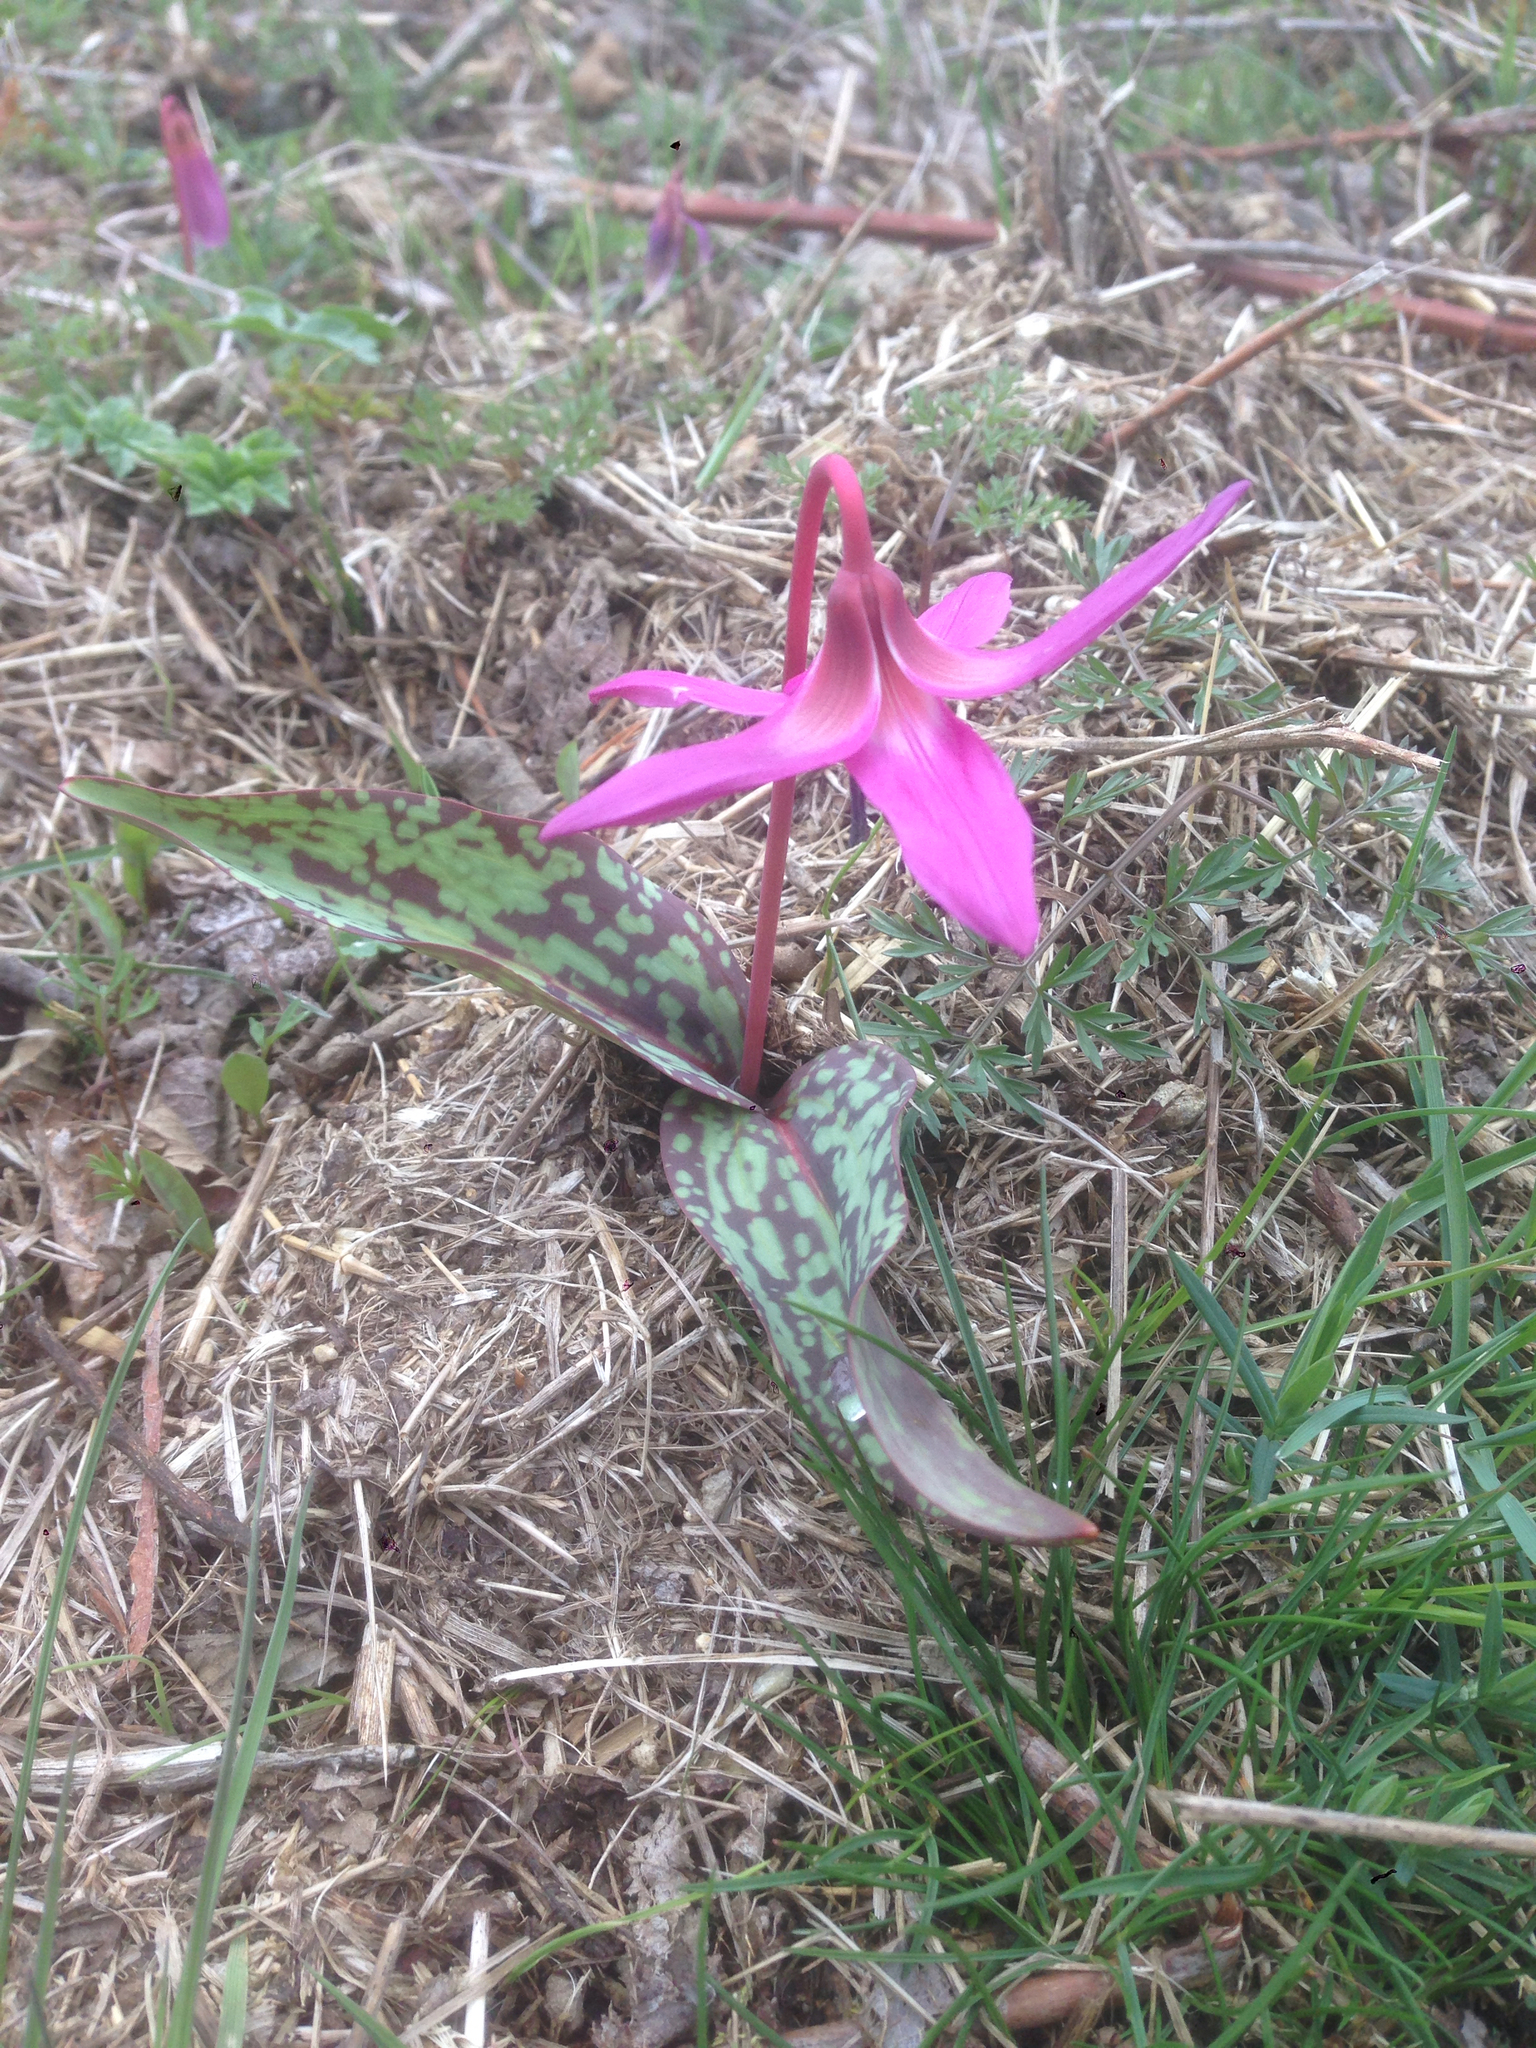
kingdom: Plantae
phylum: Tracheophyta
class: Liliopsida
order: Liliales
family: Liliaceae
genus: Erythronium
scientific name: Erythronium dens-canis
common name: Dog's-tooth-violet
